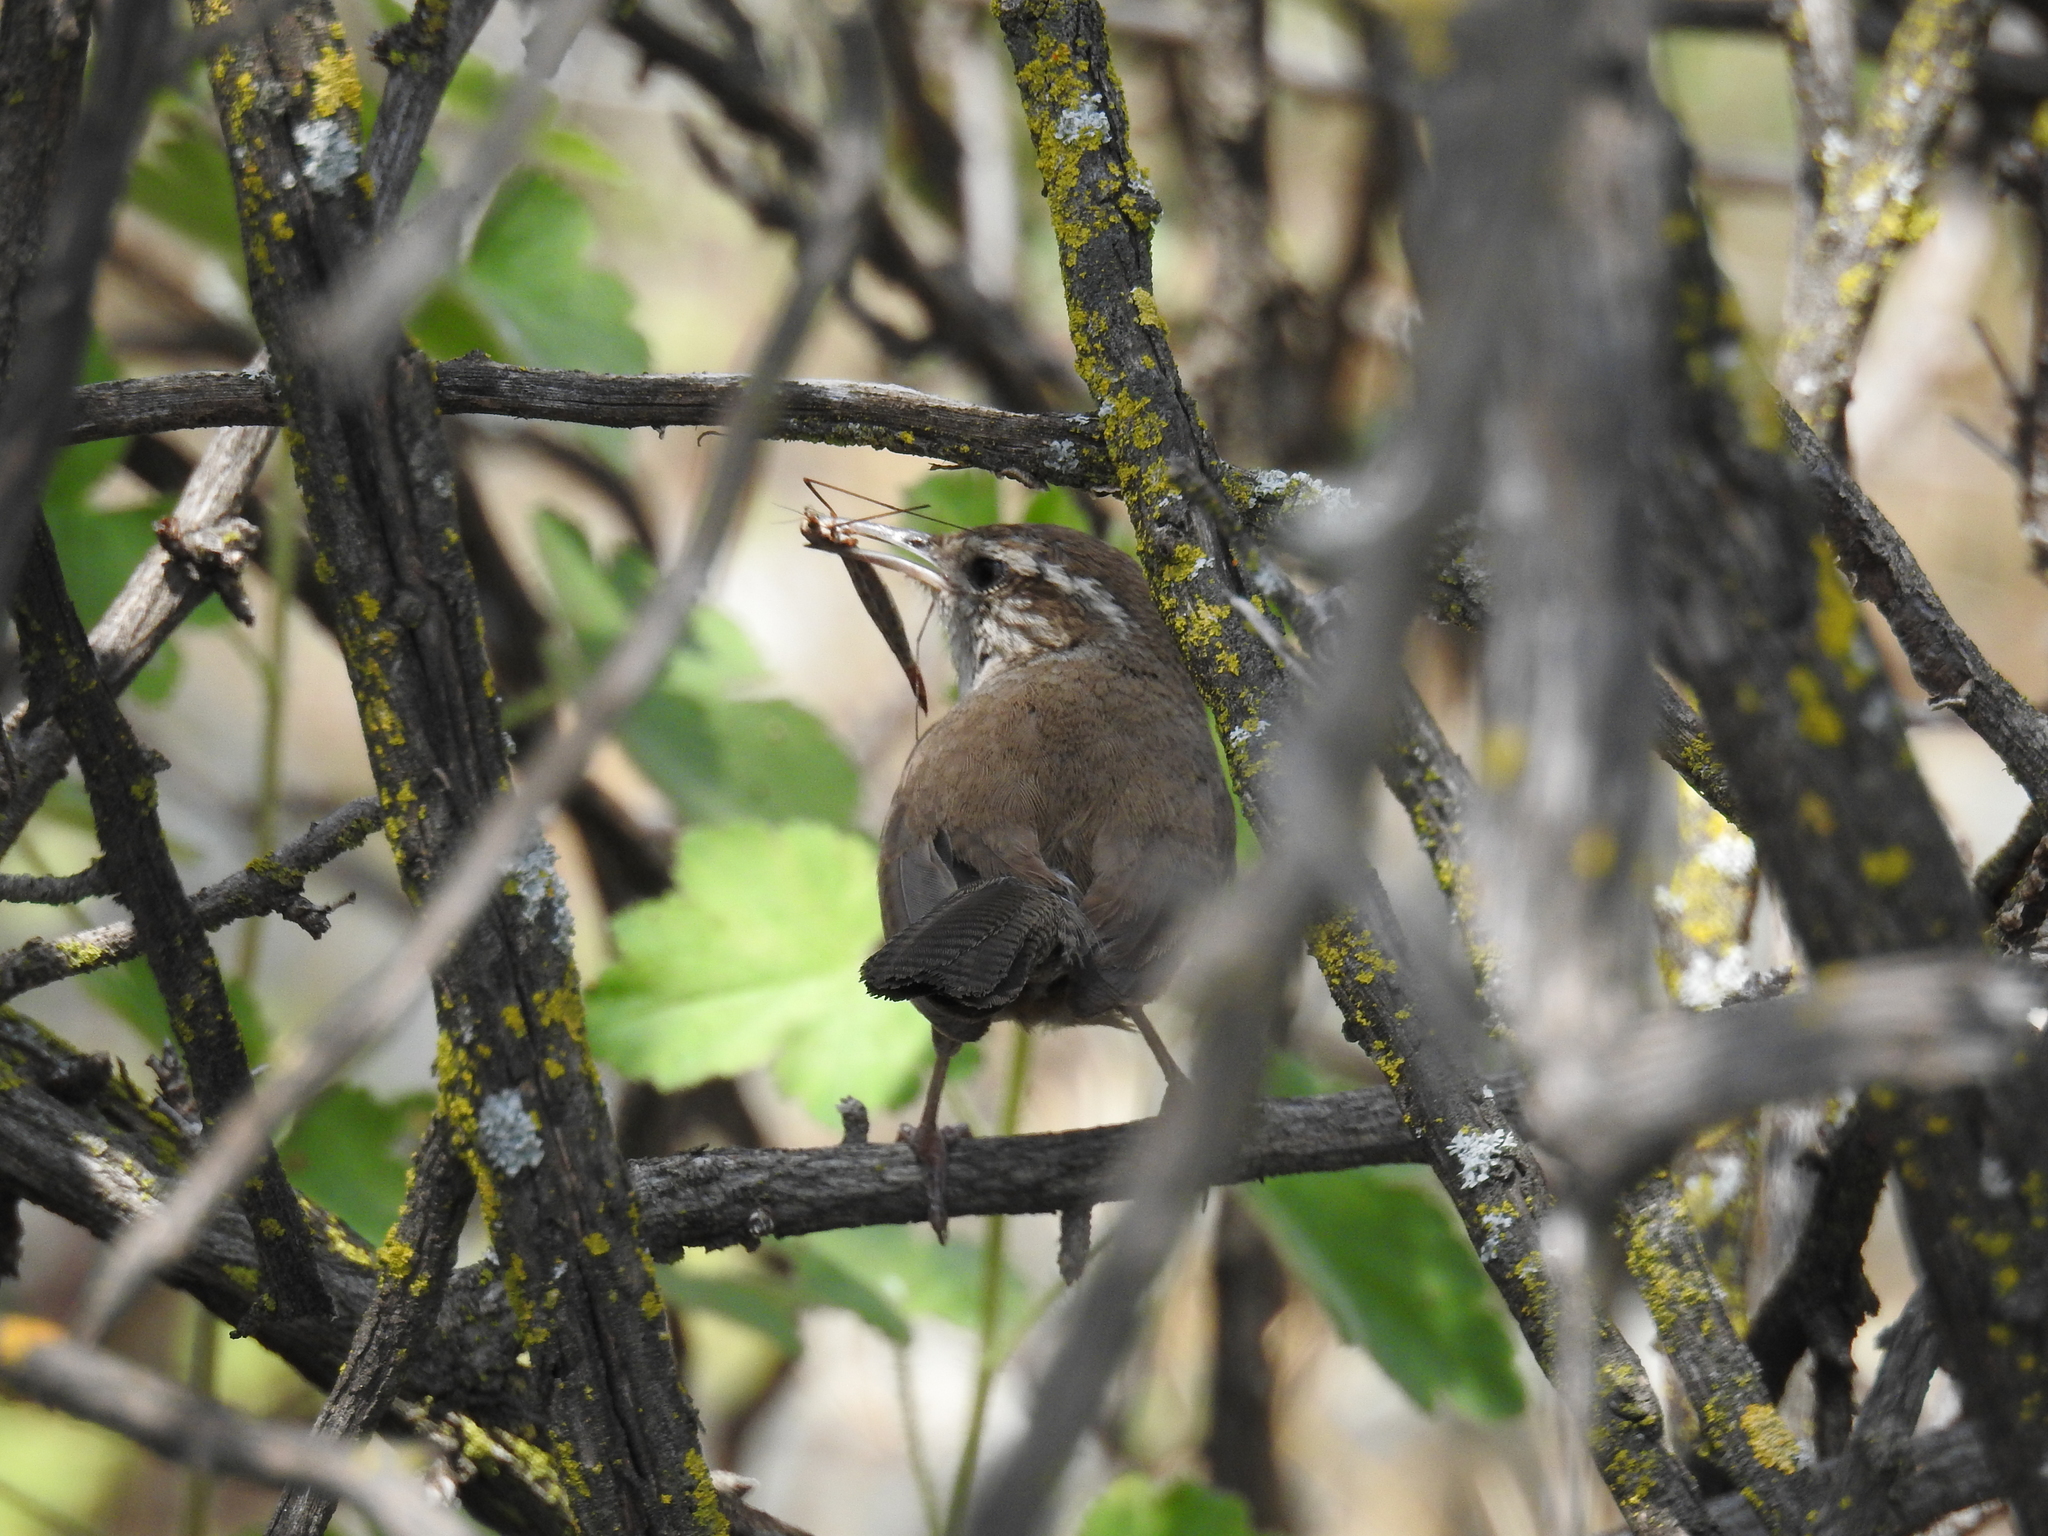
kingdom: Animalia
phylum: Chordata
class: Aves
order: Passeriformes
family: Troglodytidae
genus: Thryomanes
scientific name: Thryomanes bewickii
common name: Bewick's wren
